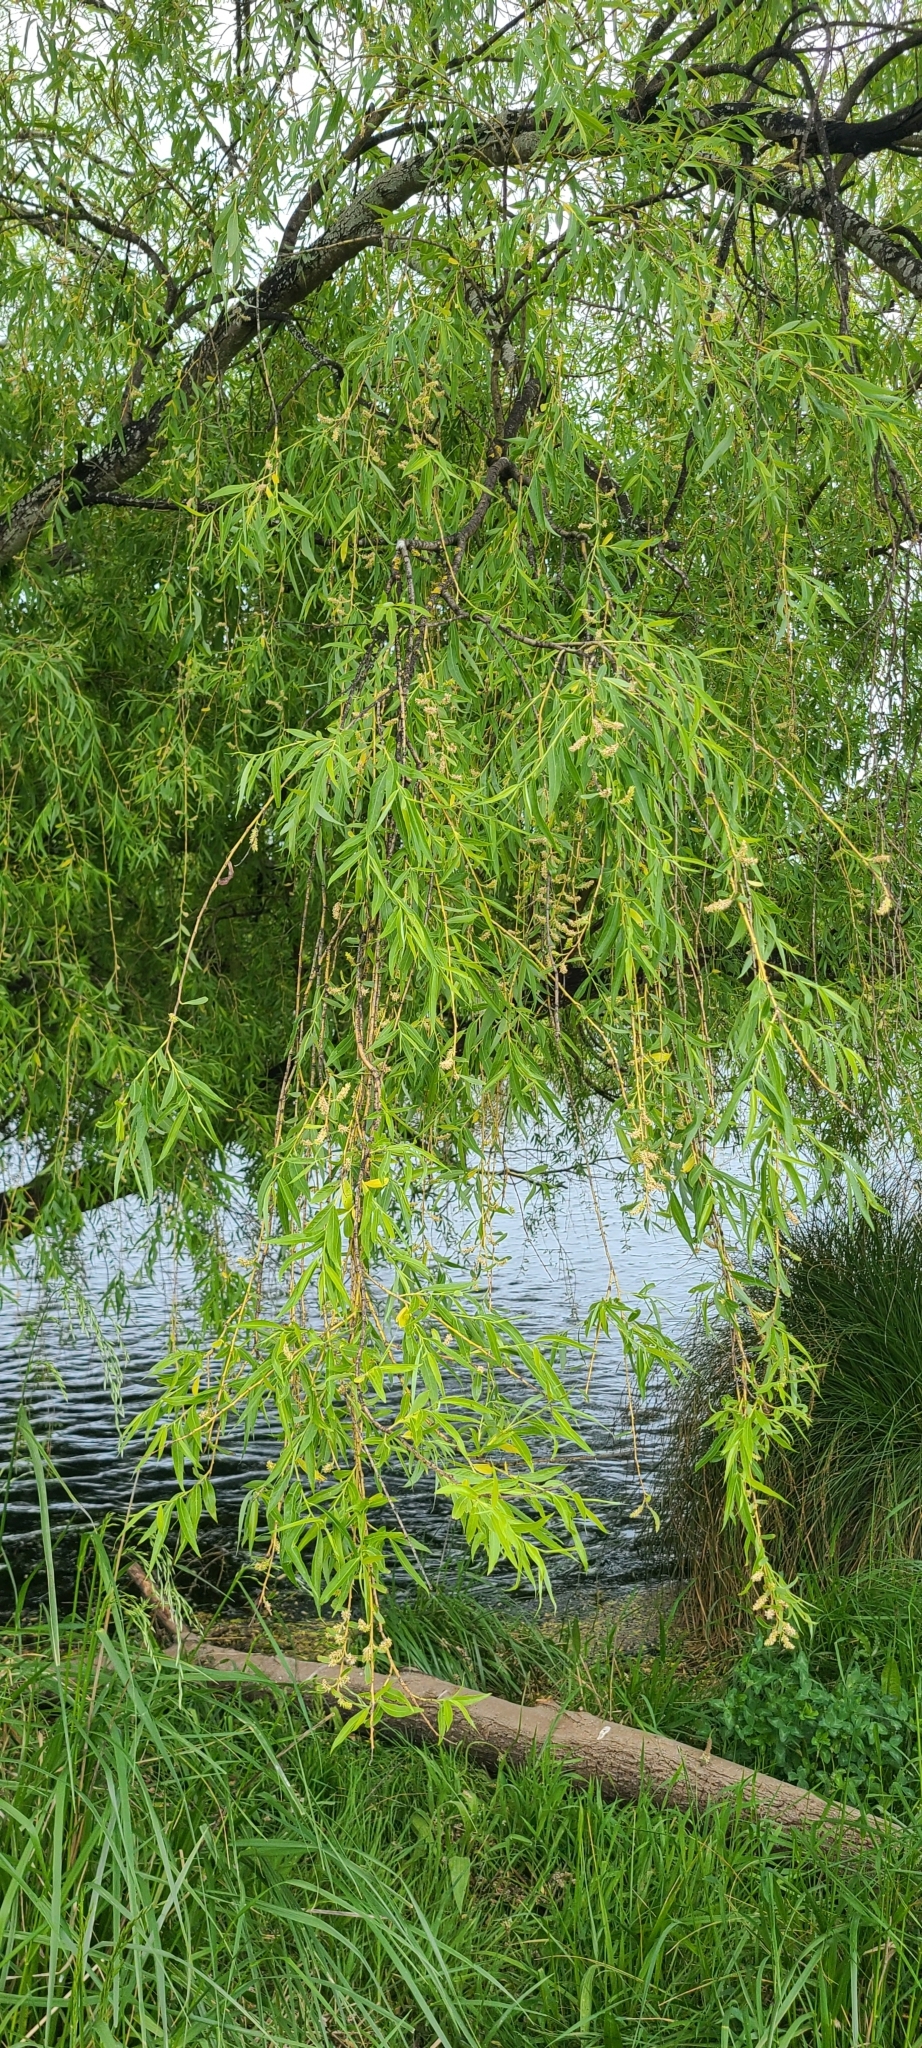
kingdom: Plantae
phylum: Tracheophyta
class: Magnoliopsida
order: Malpighiales
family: Salicaceae
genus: Salix
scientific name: Salix babylonica
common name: Weeping willow
